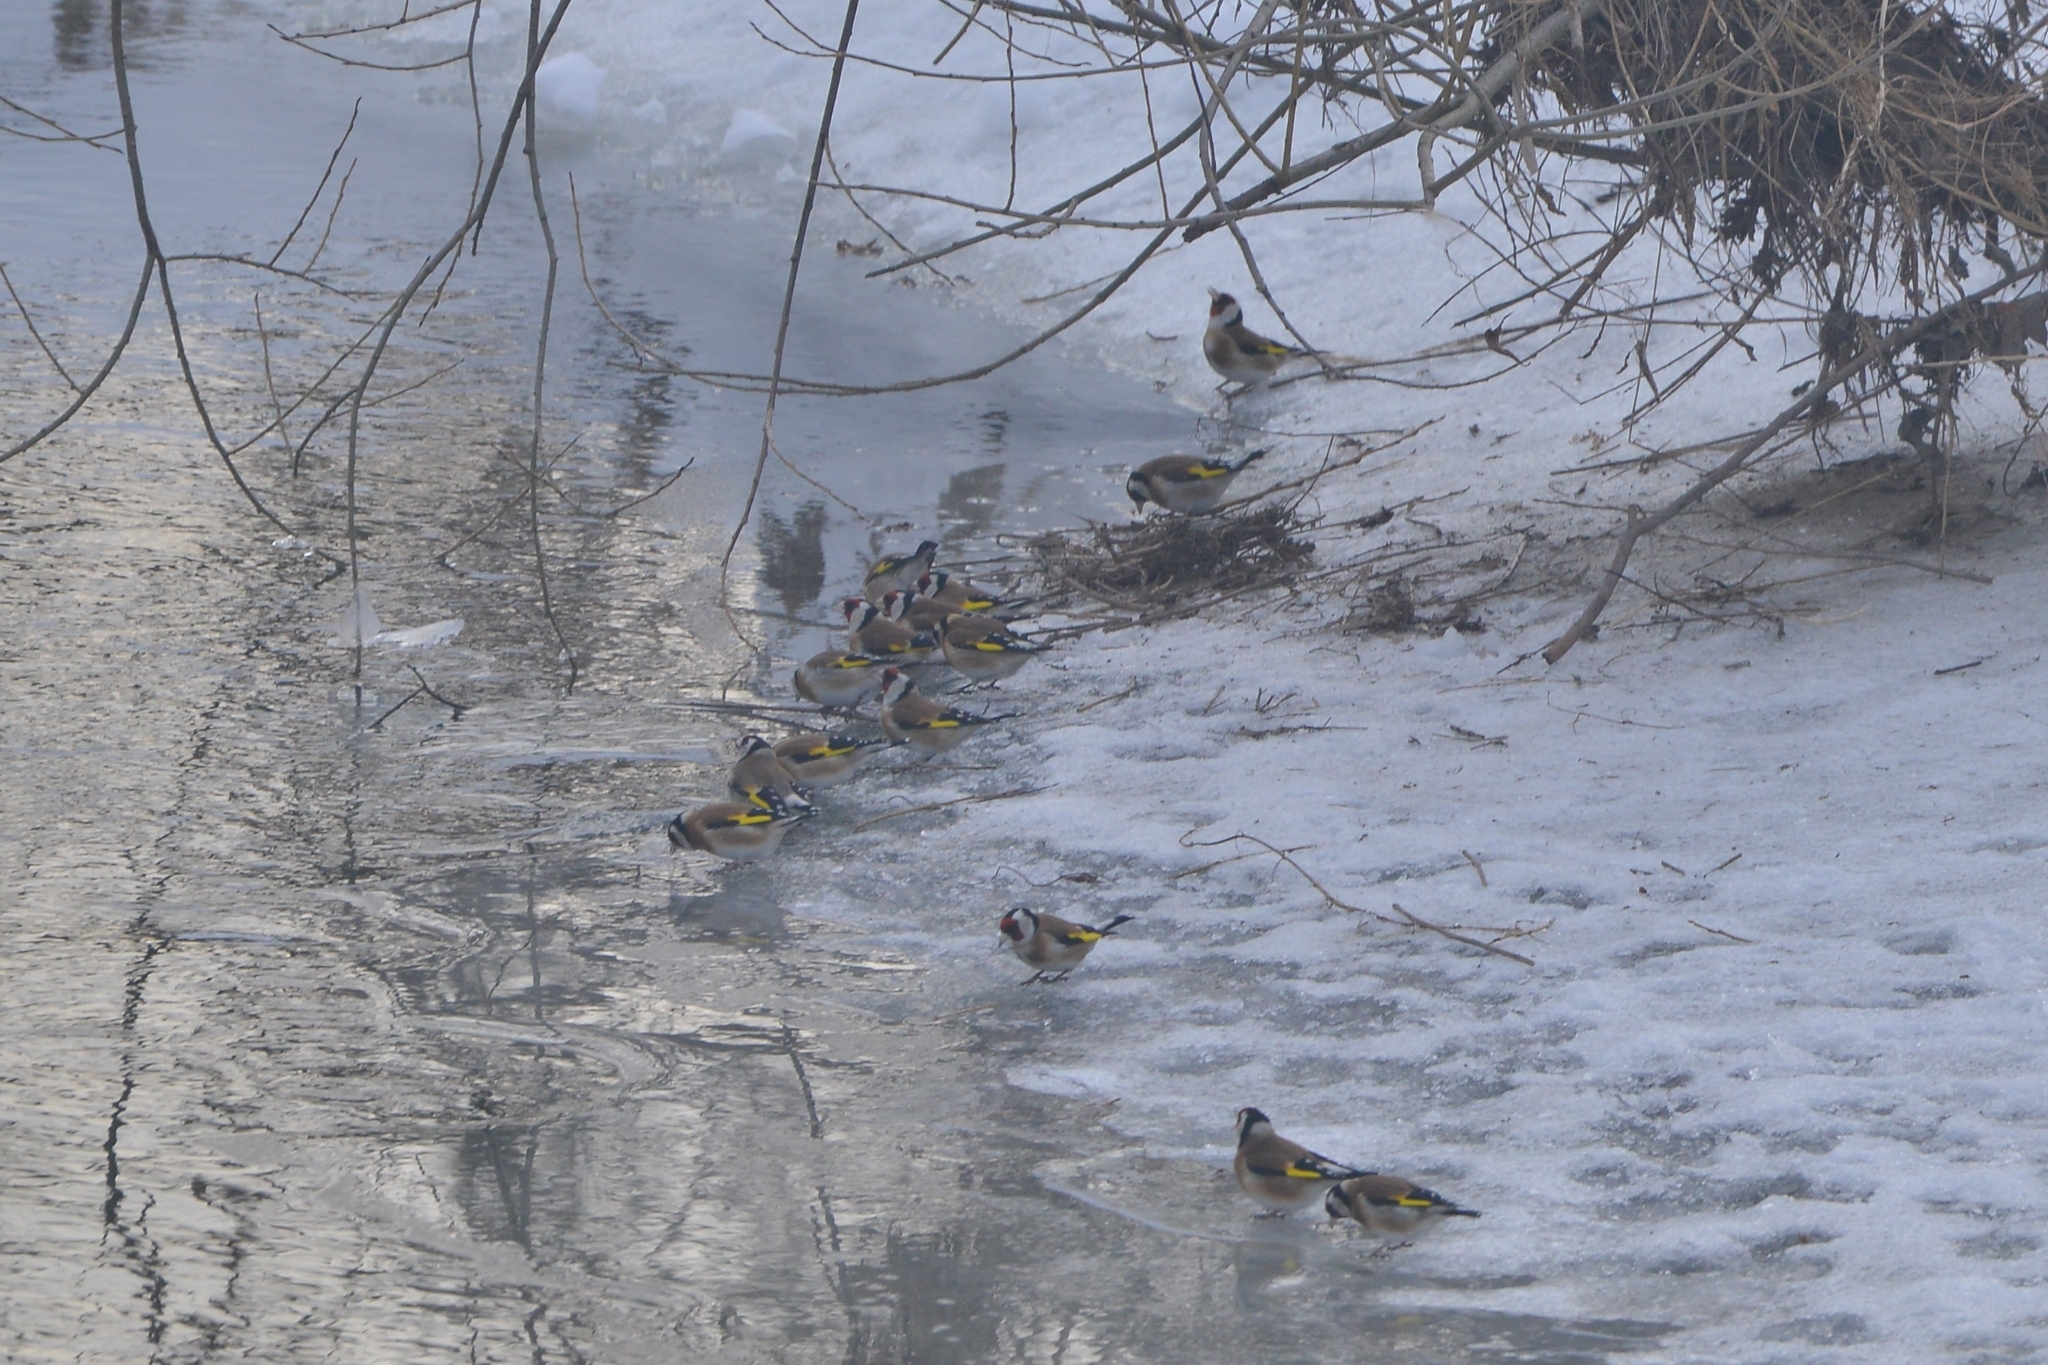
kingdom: Animalia
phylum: Chordata
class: Aves
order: Passeriformes
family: Fringillidae
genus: Carduelis
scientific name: Carduelis carduelis
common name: European goldfinch
